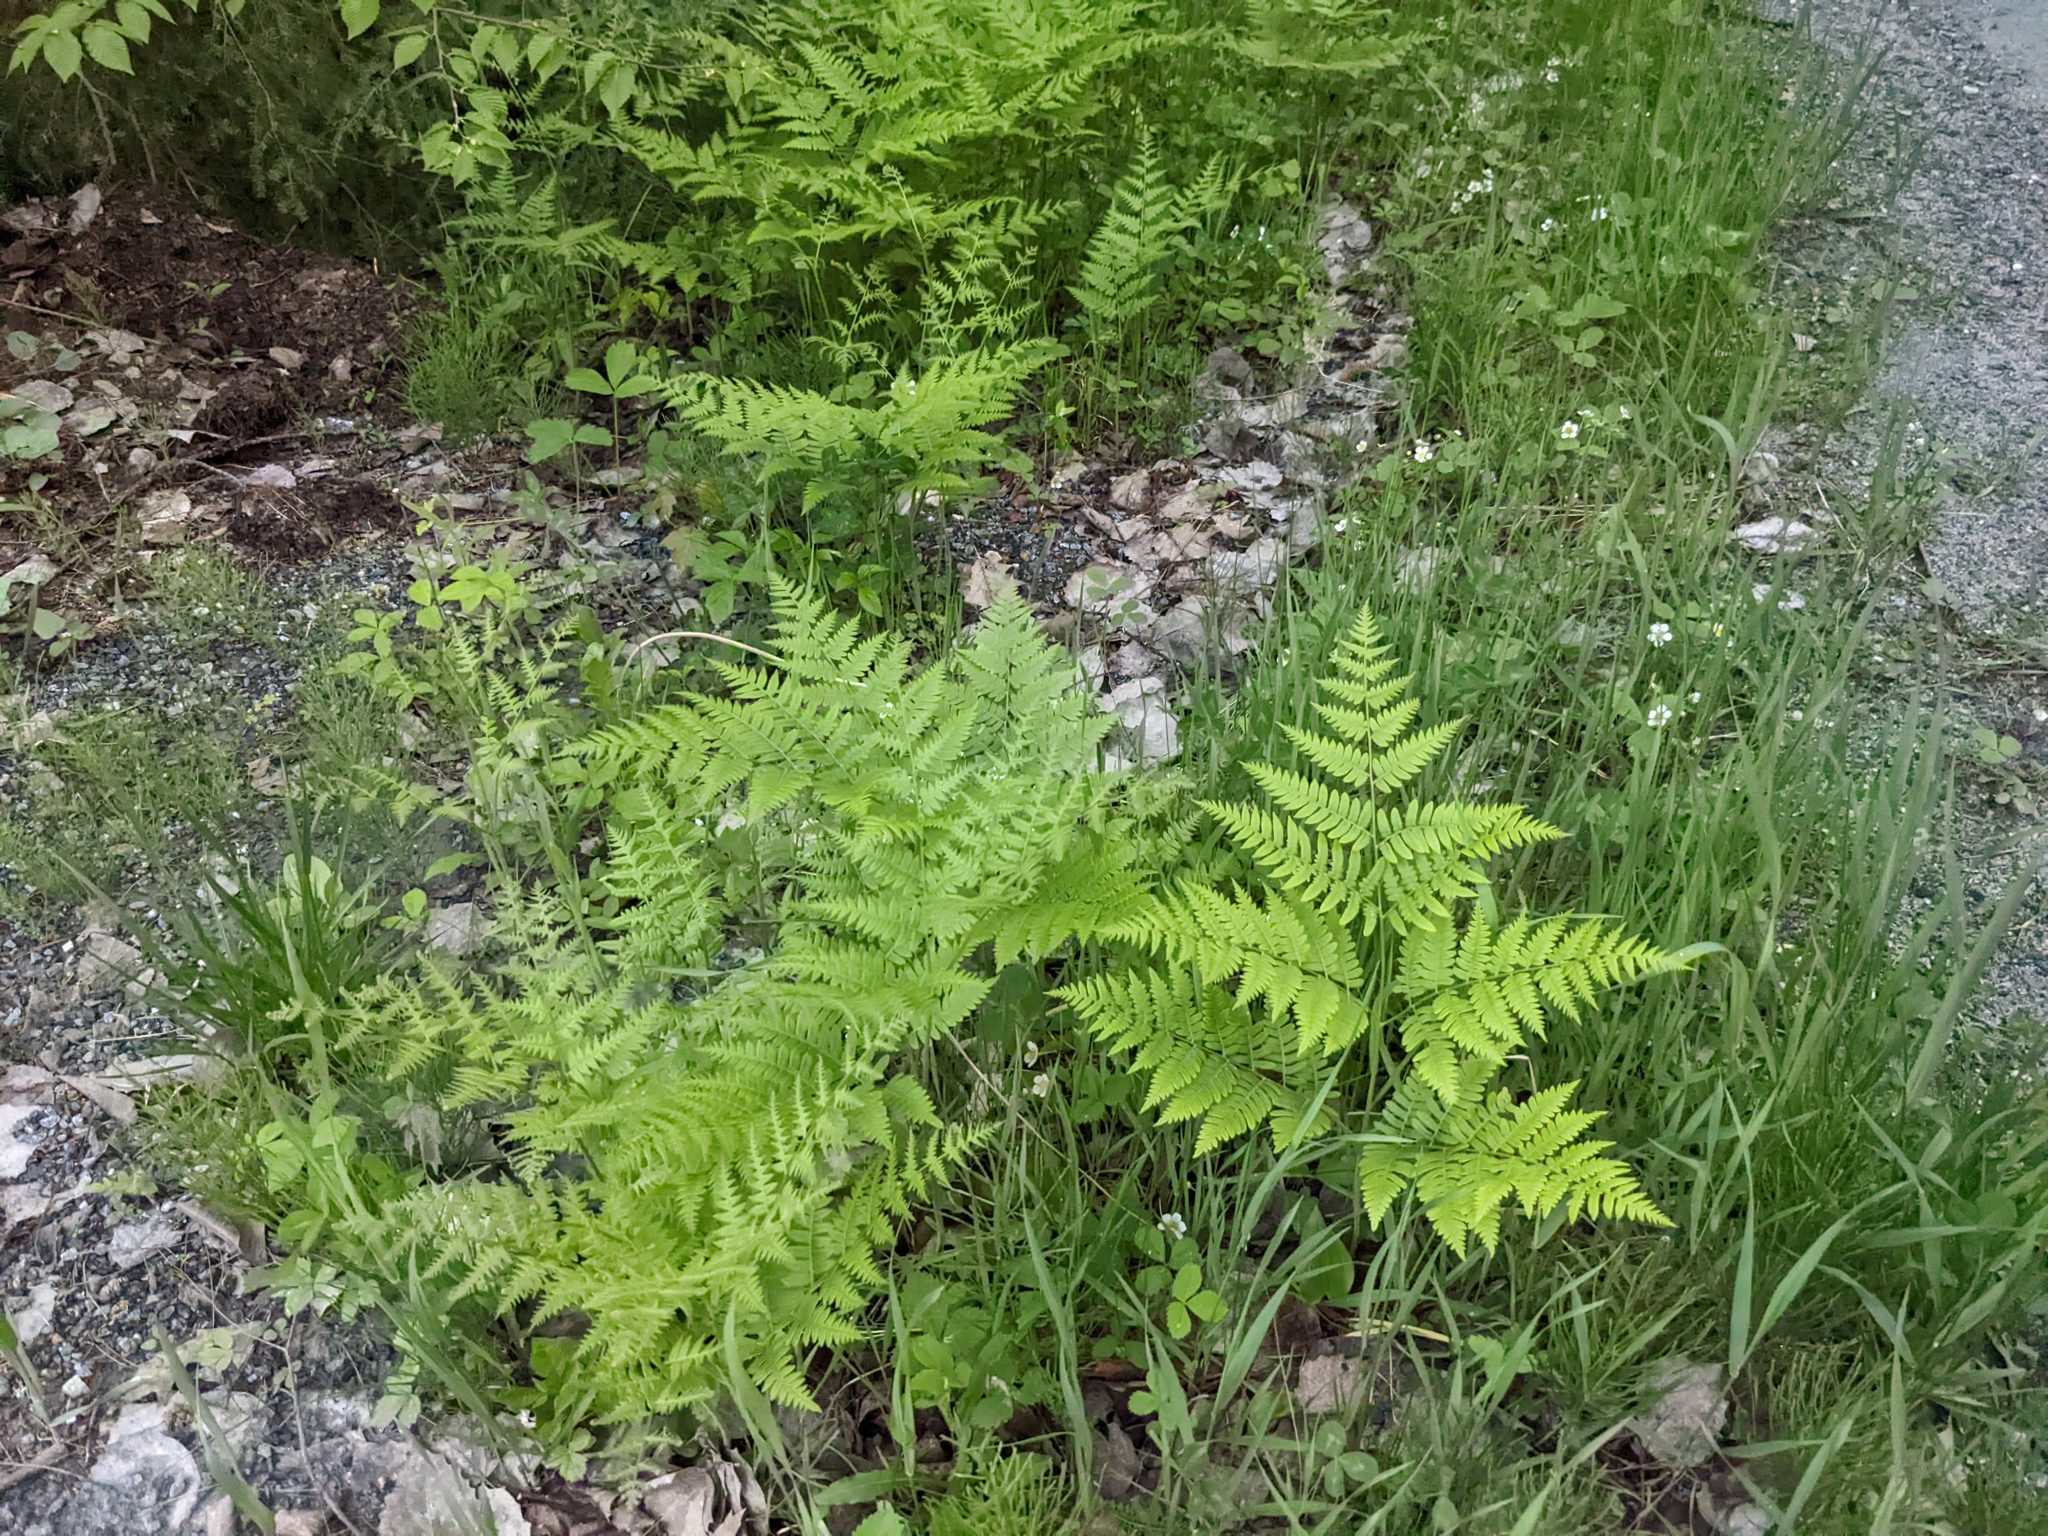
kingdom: Plantae
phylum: Tracheophyta
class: Polypodiopsida
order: Polypodiales
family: Dennstaedtiaceae
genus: Pteridium
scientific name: Pteridium aquilinum
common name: Bracken
